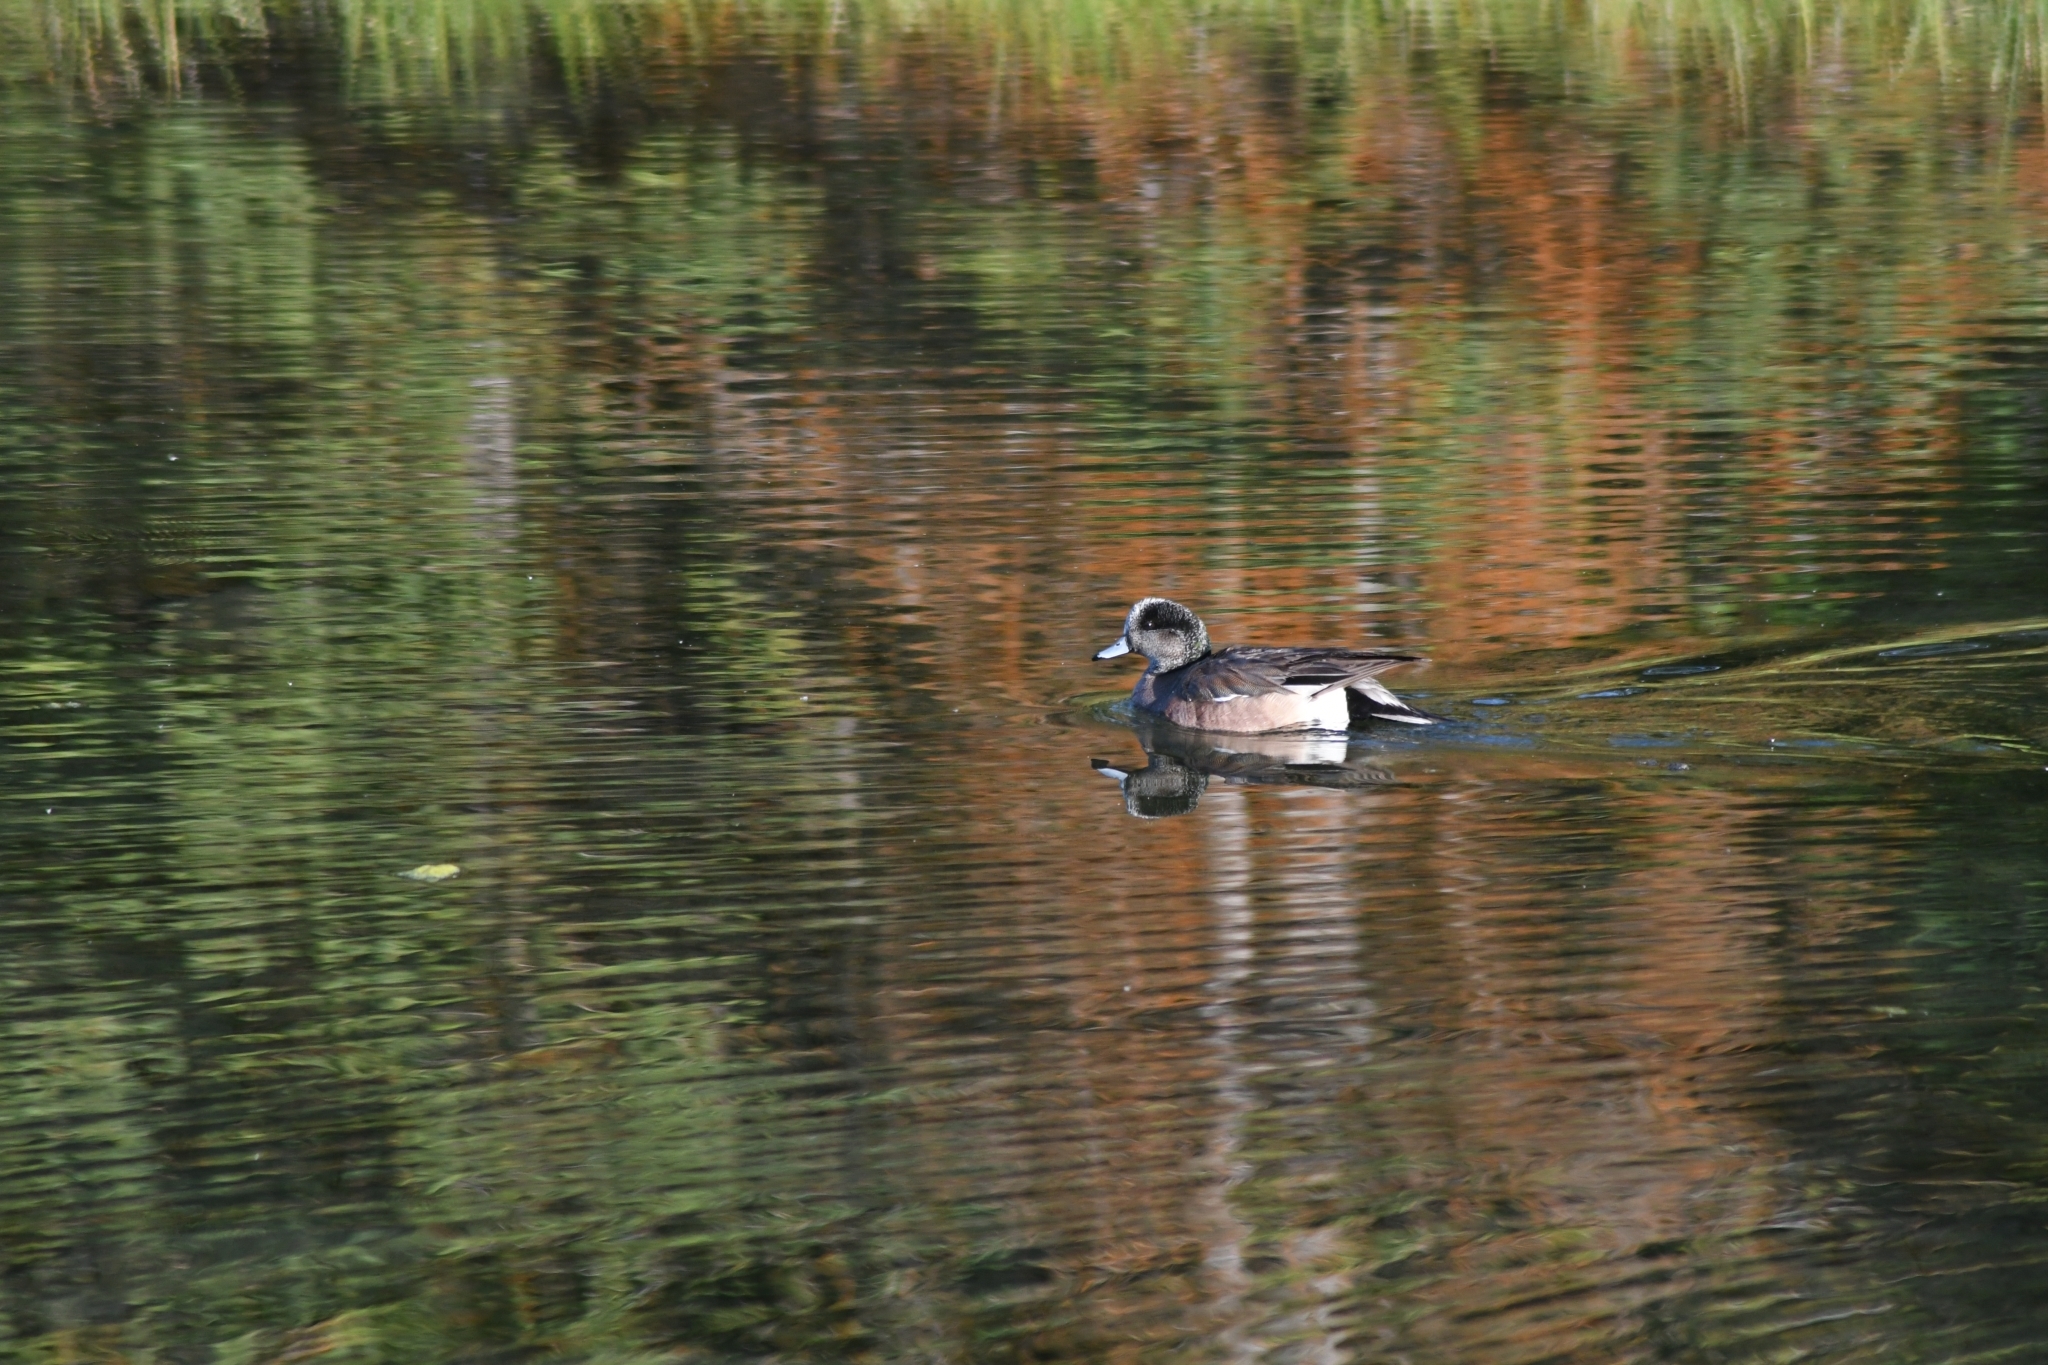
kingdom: Animalia
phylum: Chordata
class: Aves
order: Anseriformes
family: Anatidae
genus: Mareca
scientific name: Mareca americana
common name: American wigeon
